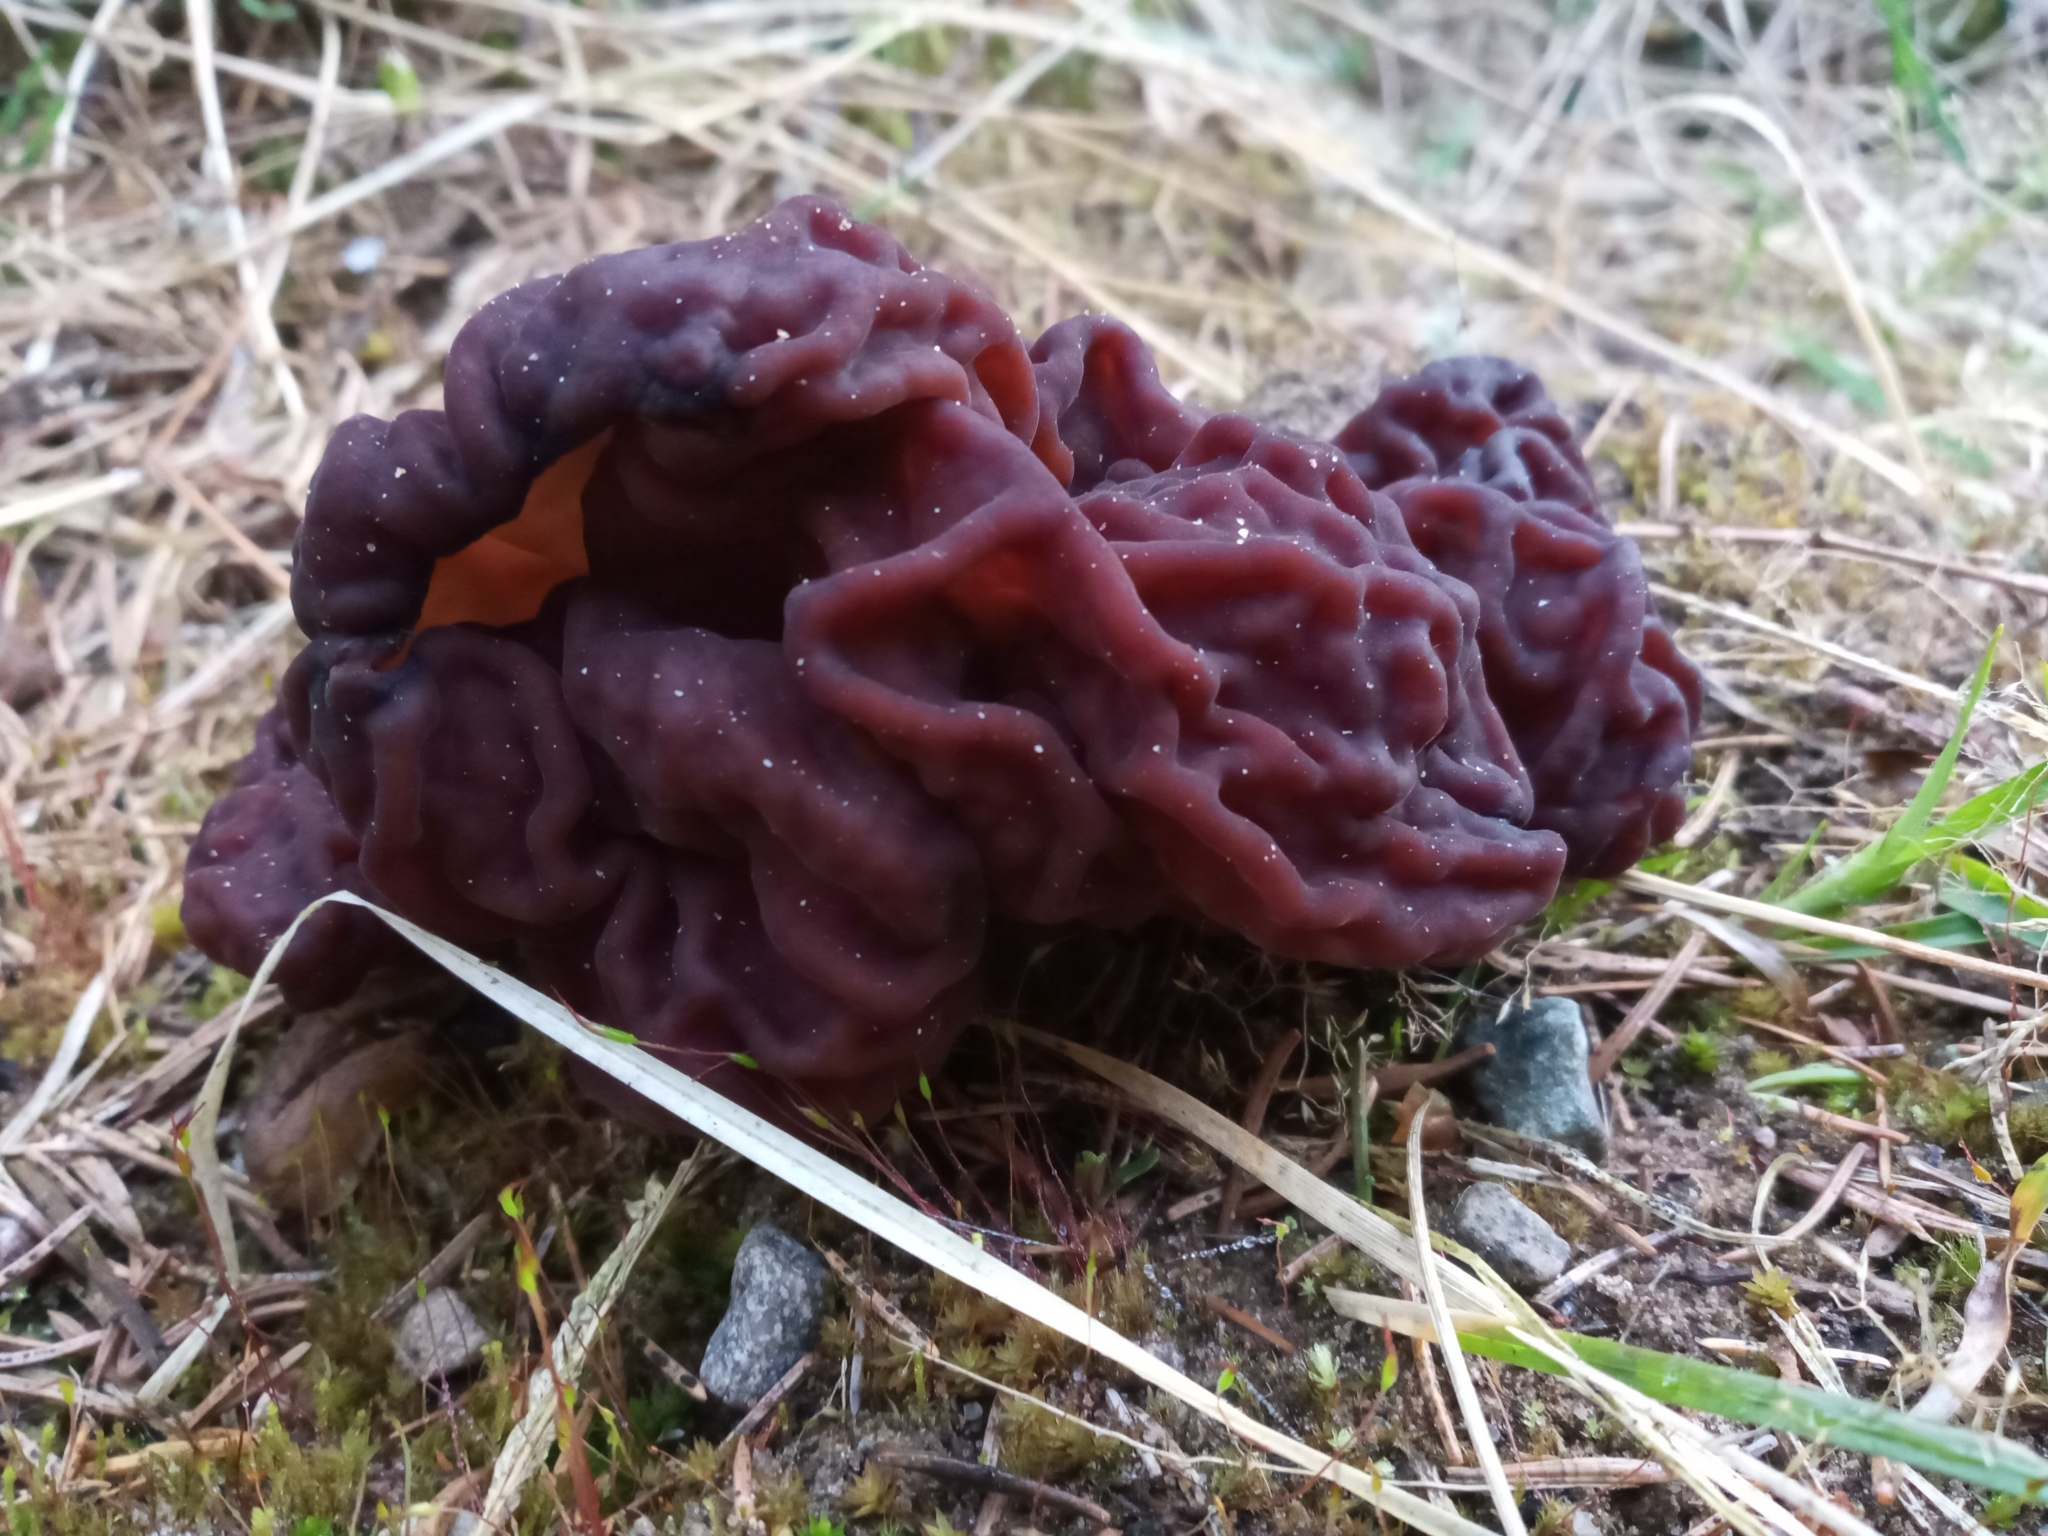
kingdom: Fungi
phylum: Ascomycota
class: Pezizomycetes
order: Pezizales
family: Discinaceae
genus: Gyromitra
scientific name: Gyromitra esculenta
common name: False morel
